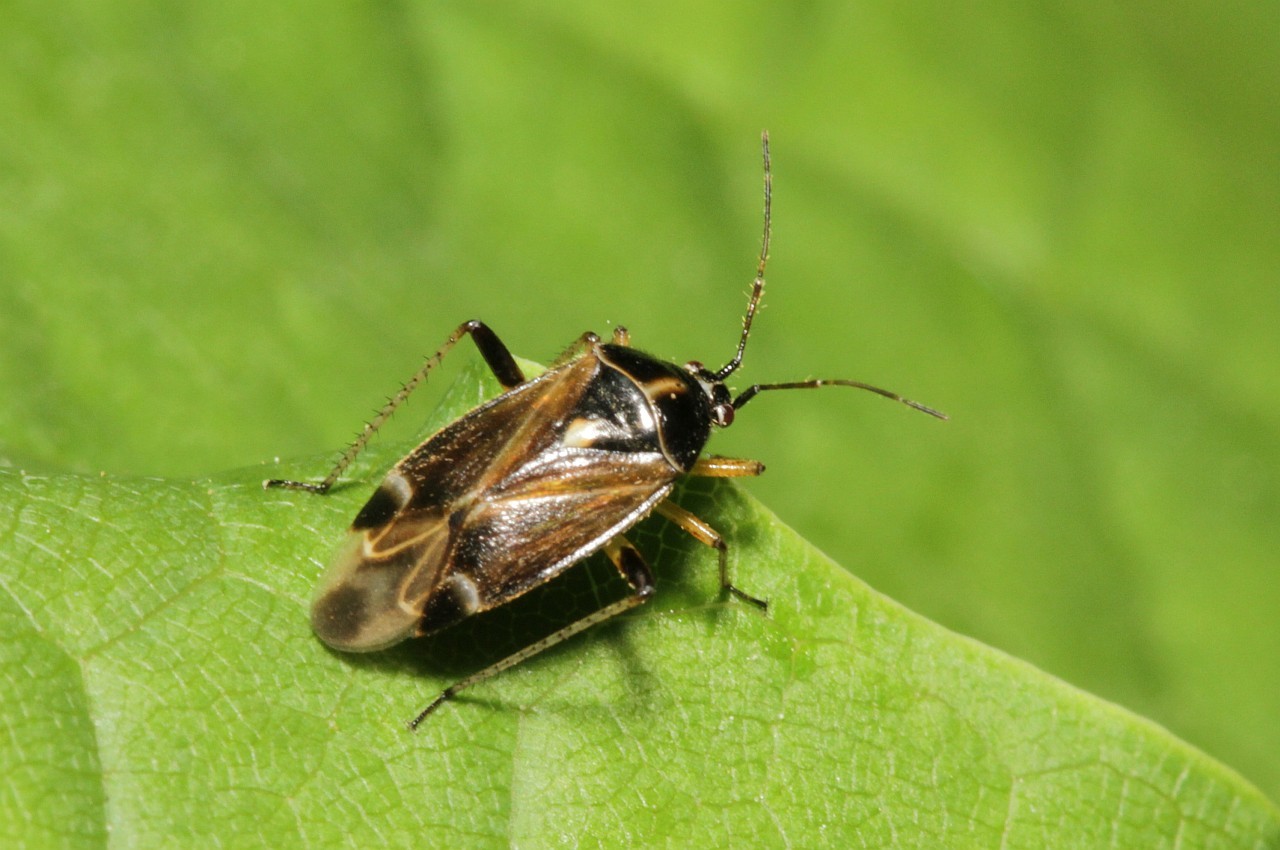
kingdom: Animalia
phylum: Arthropoda
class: Insecta
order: Hemiptera
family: Miridae
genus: Harpocera
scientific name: Harpocera thoracica
